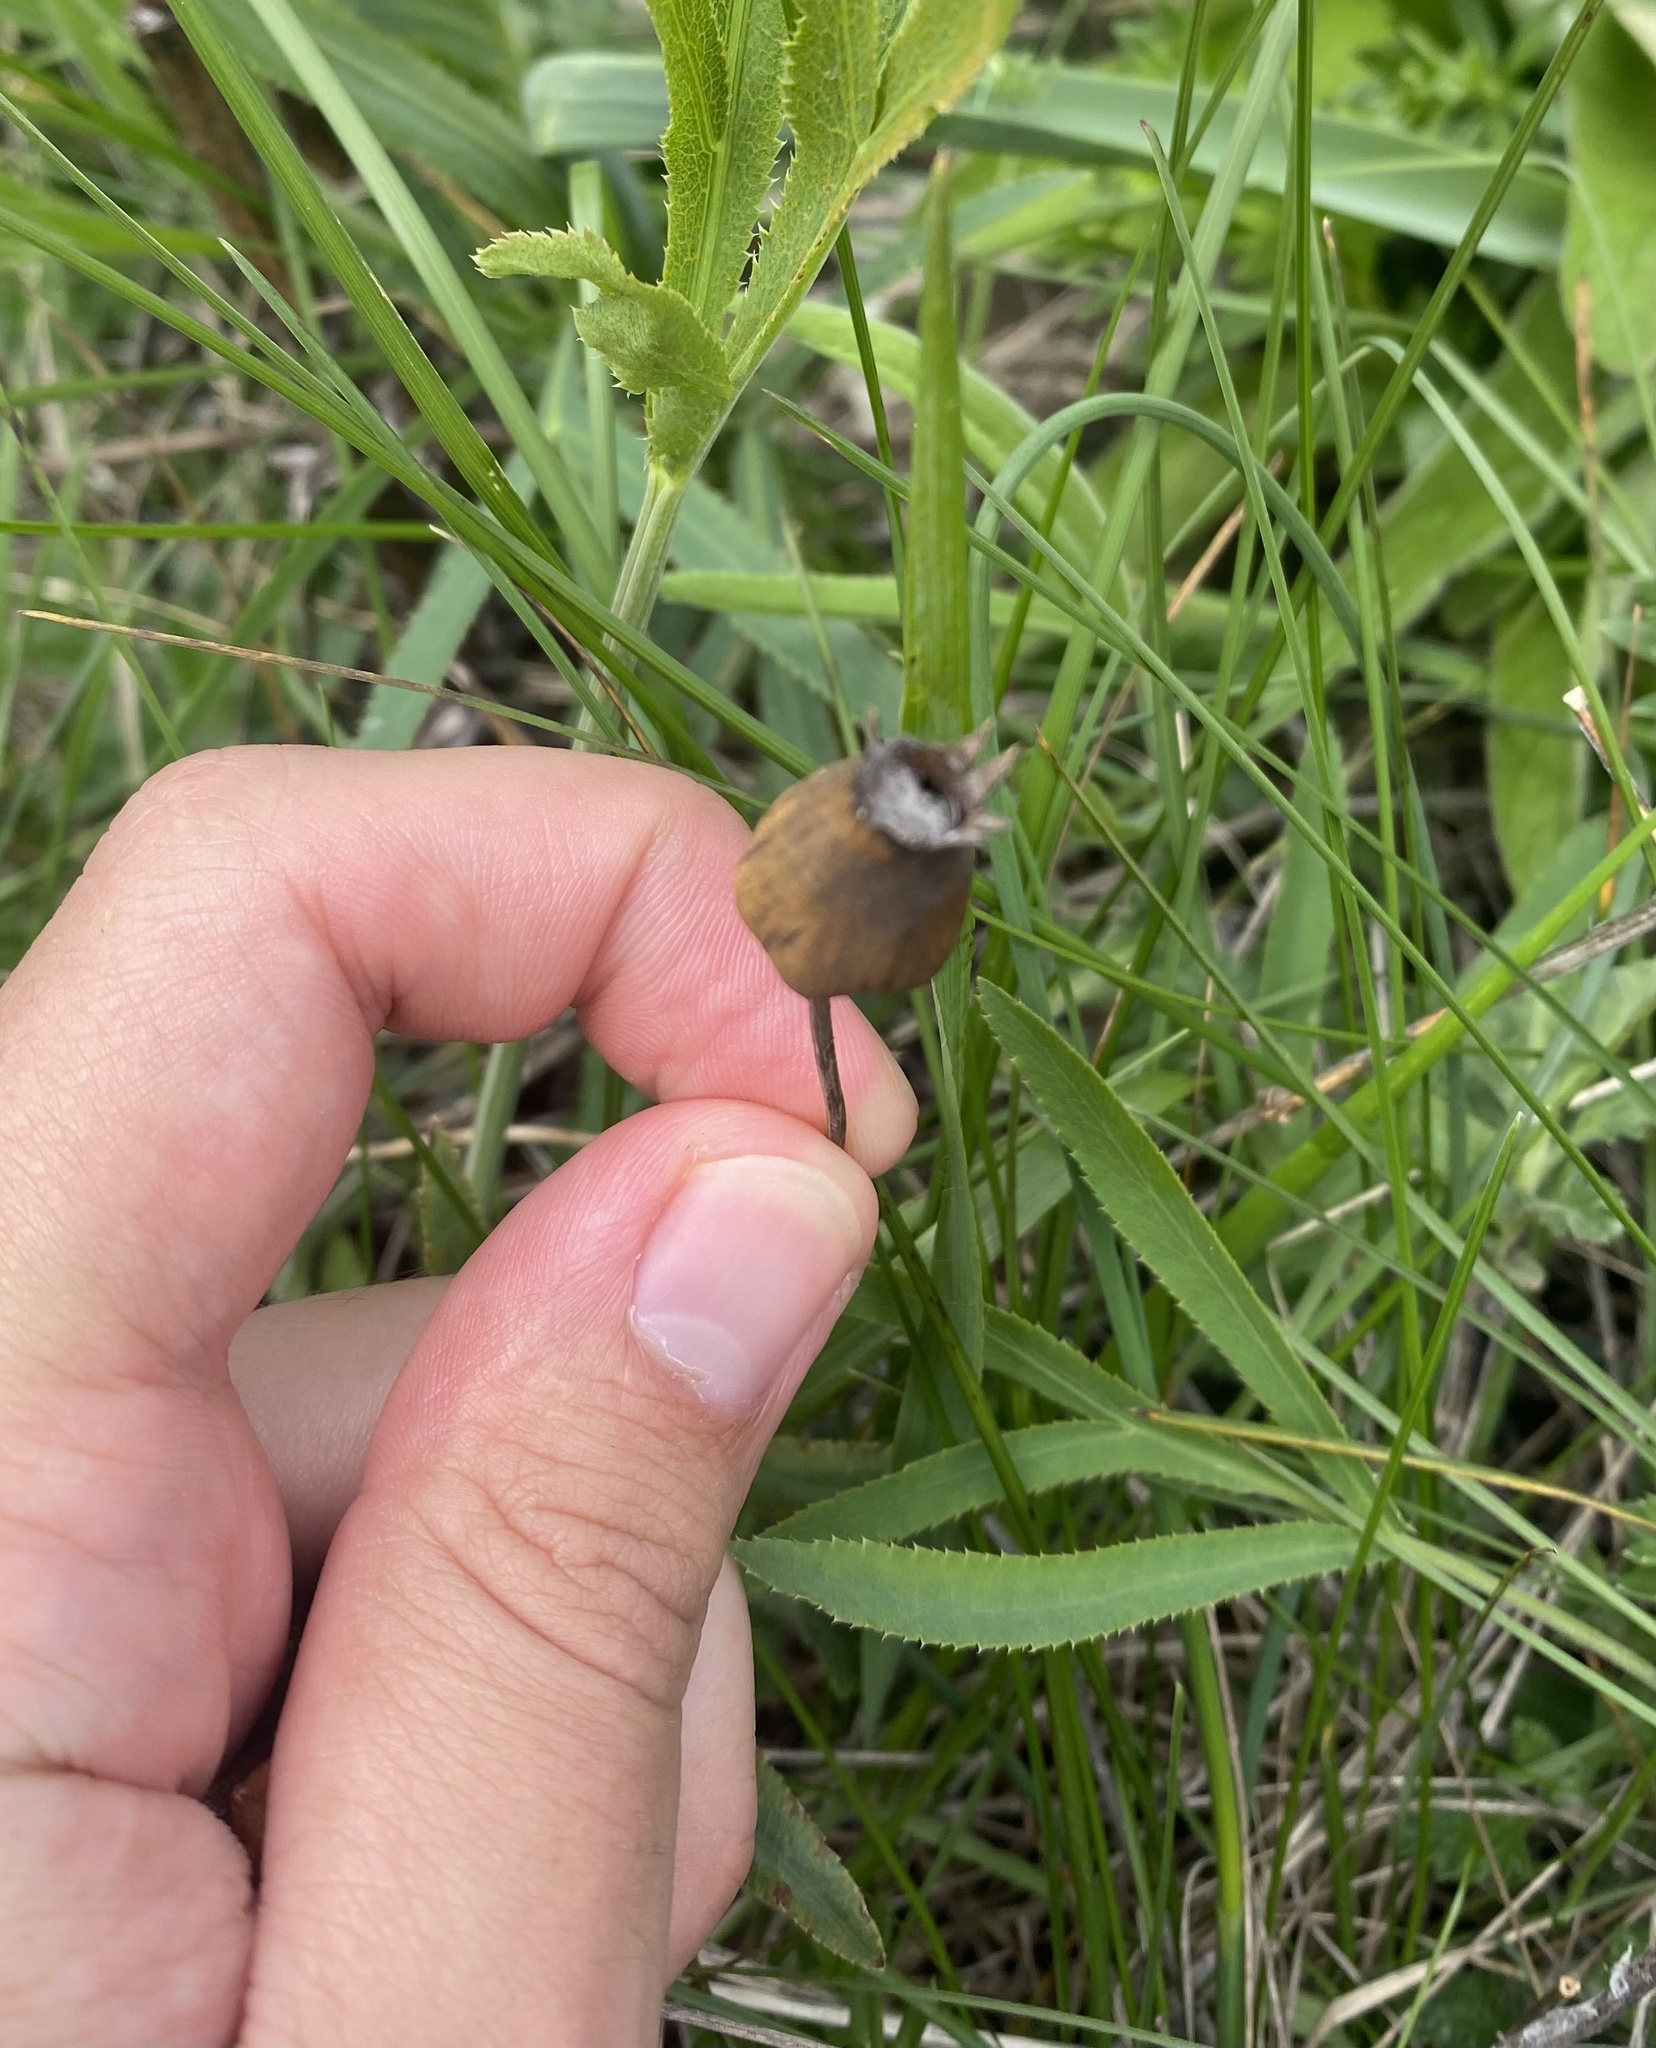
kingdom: Plantae
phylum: Tracheophyta
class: Magnoliopsida
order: Caryophyllales
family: Caryophyllaceae
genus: Silene
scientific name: Silene latifolia
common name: White campion
